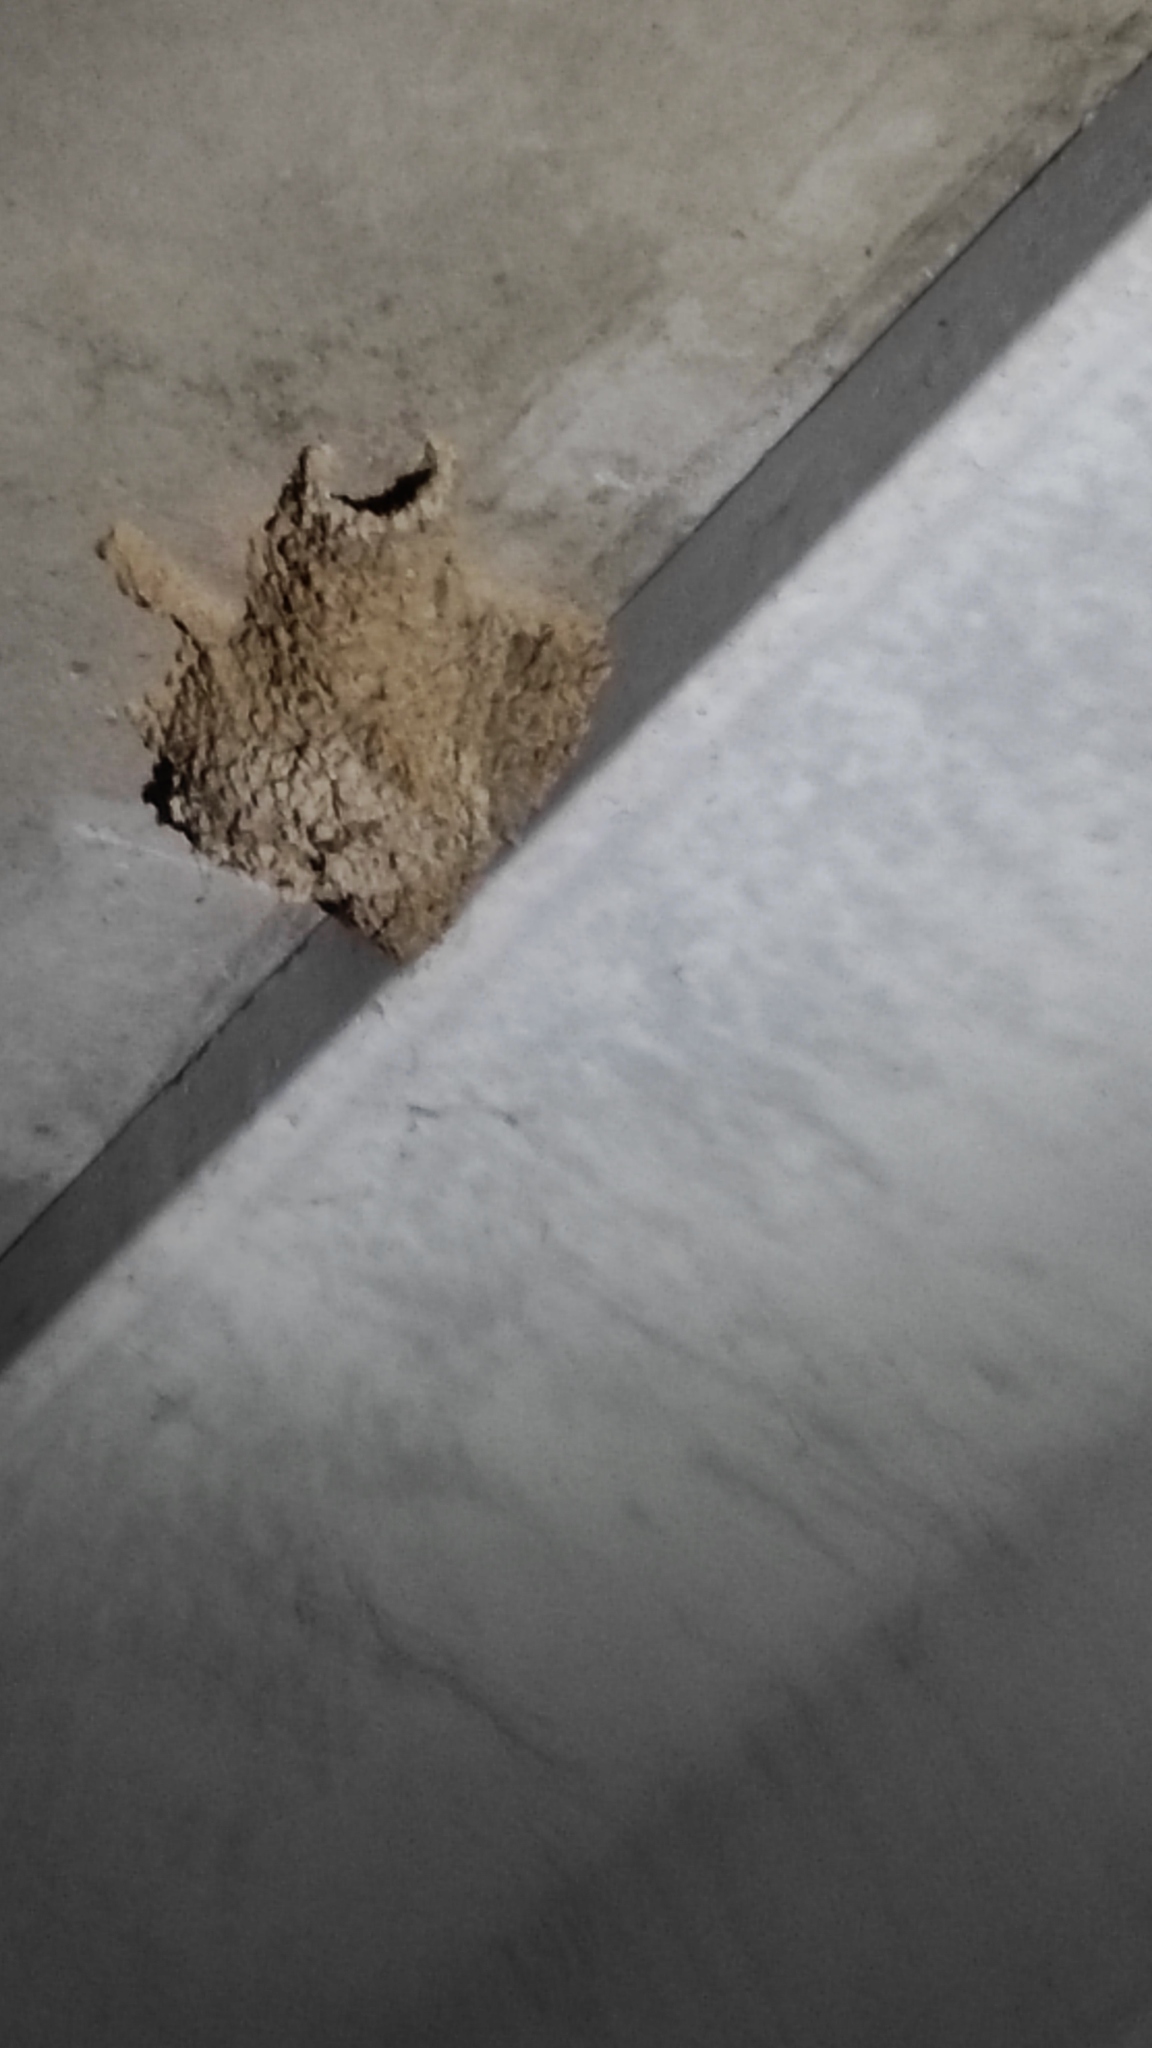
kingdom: Animalia
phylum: Chordata
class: Aves
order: Passeriformes
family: Hirundinidae
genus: Cecropis
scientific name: Cecropis daurica
